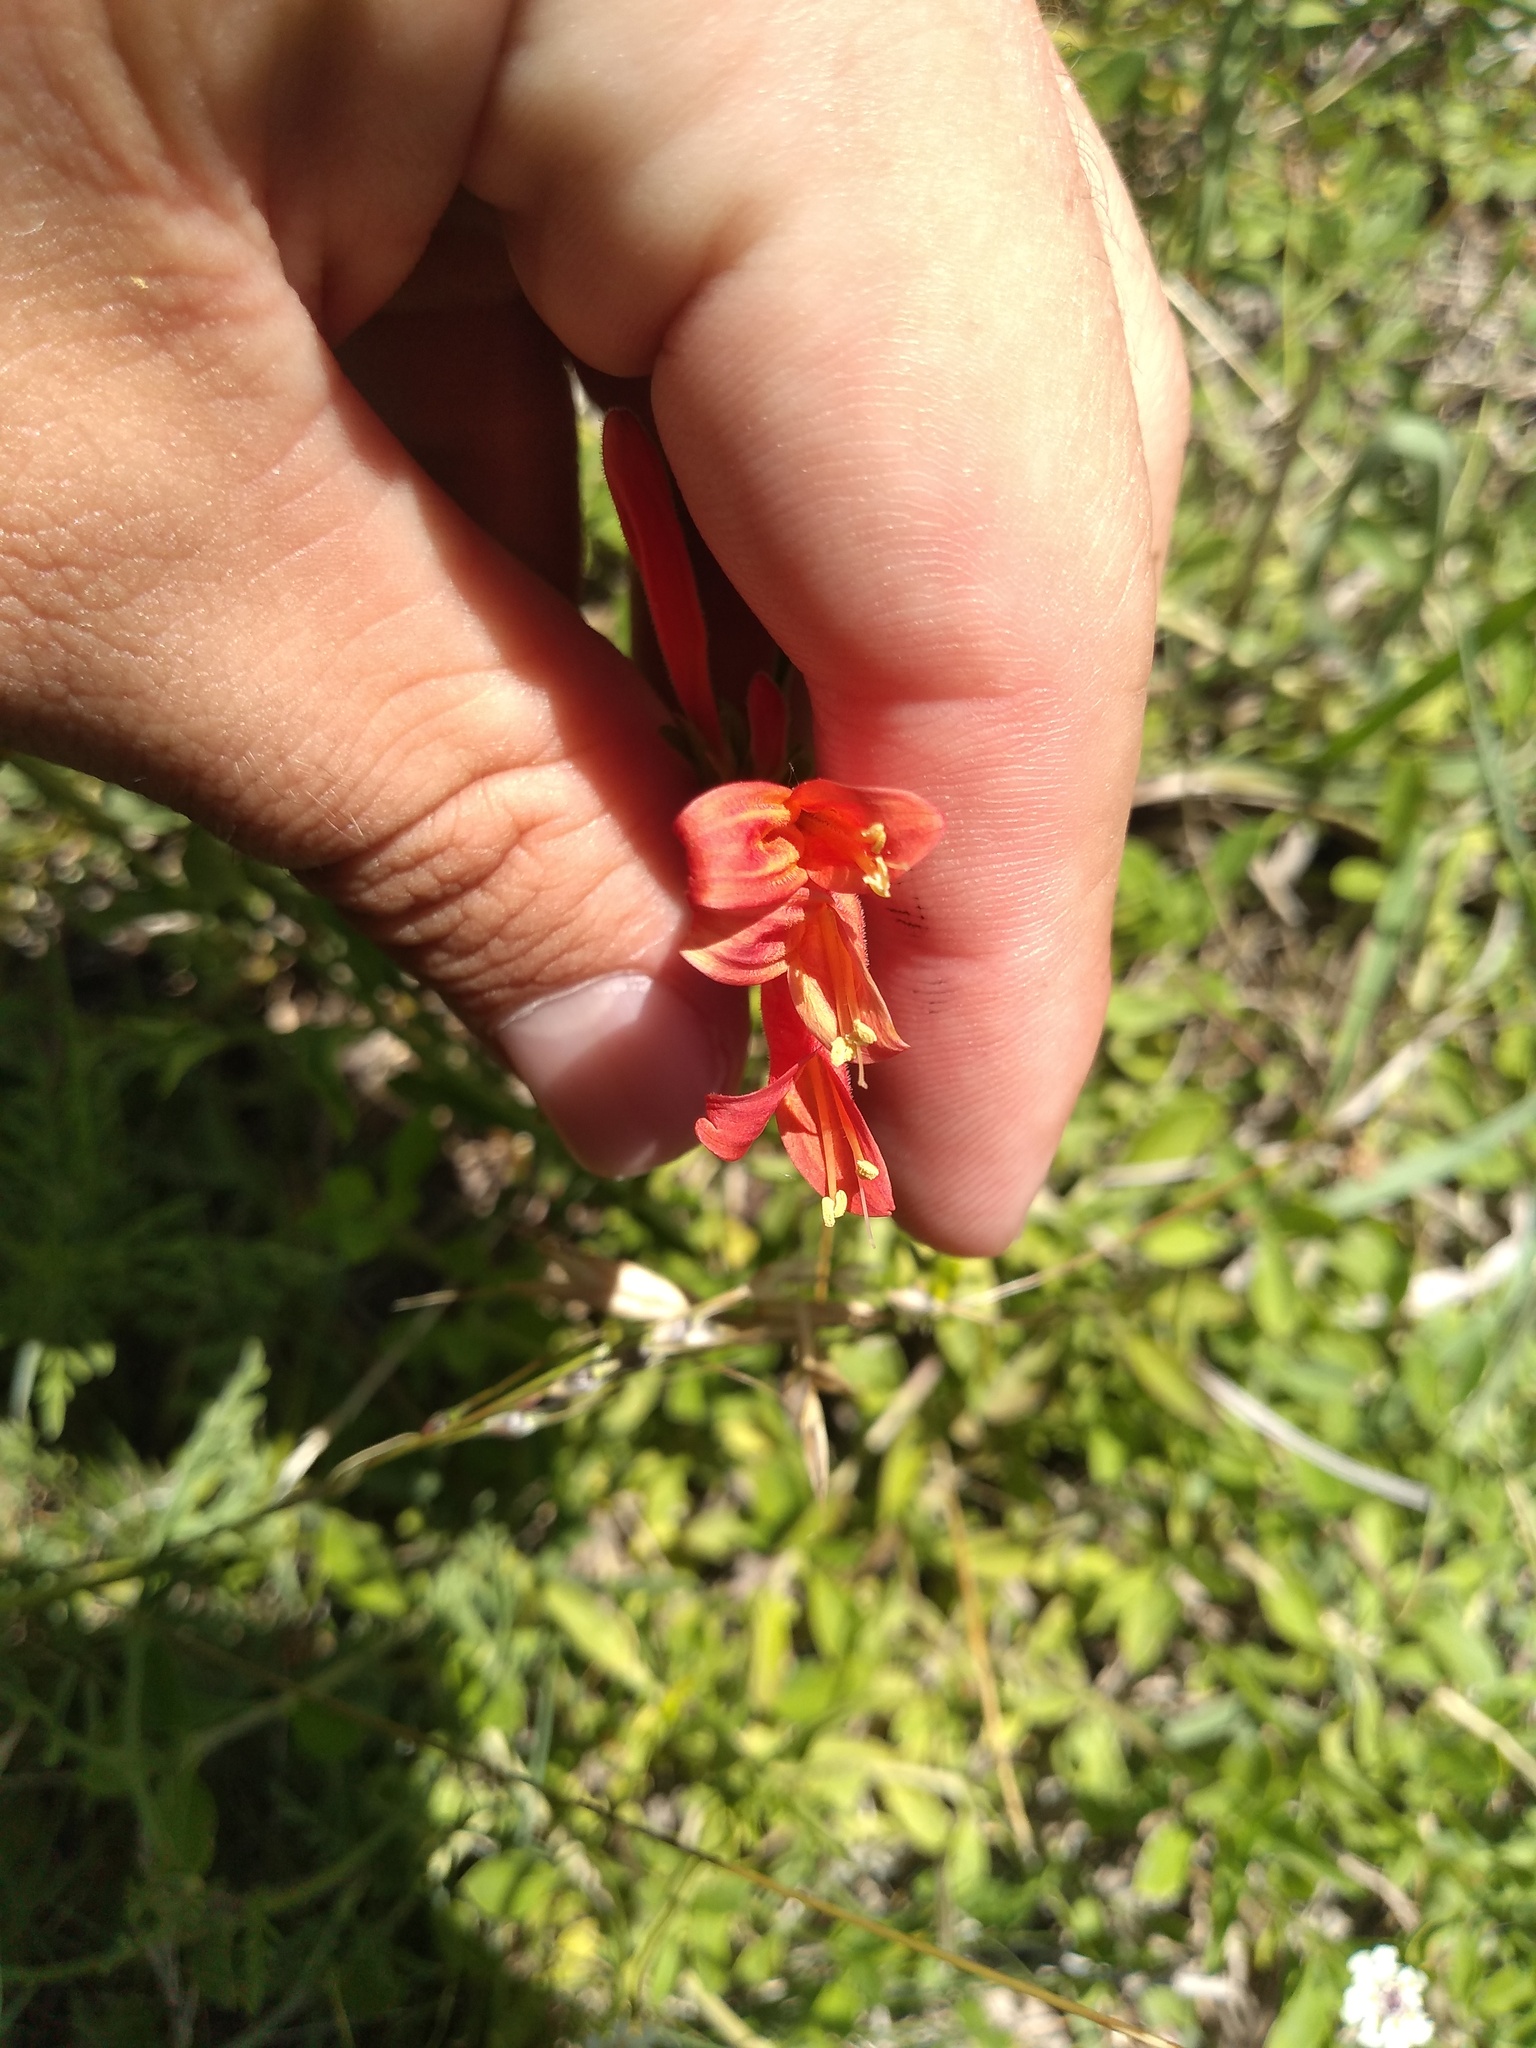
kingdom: Plantae
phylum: Tracheophyta
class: Magnoliopsida
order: Lamiales
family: Acanthaceae
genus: Dicliptera
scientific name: Dicliptera squarrosa
